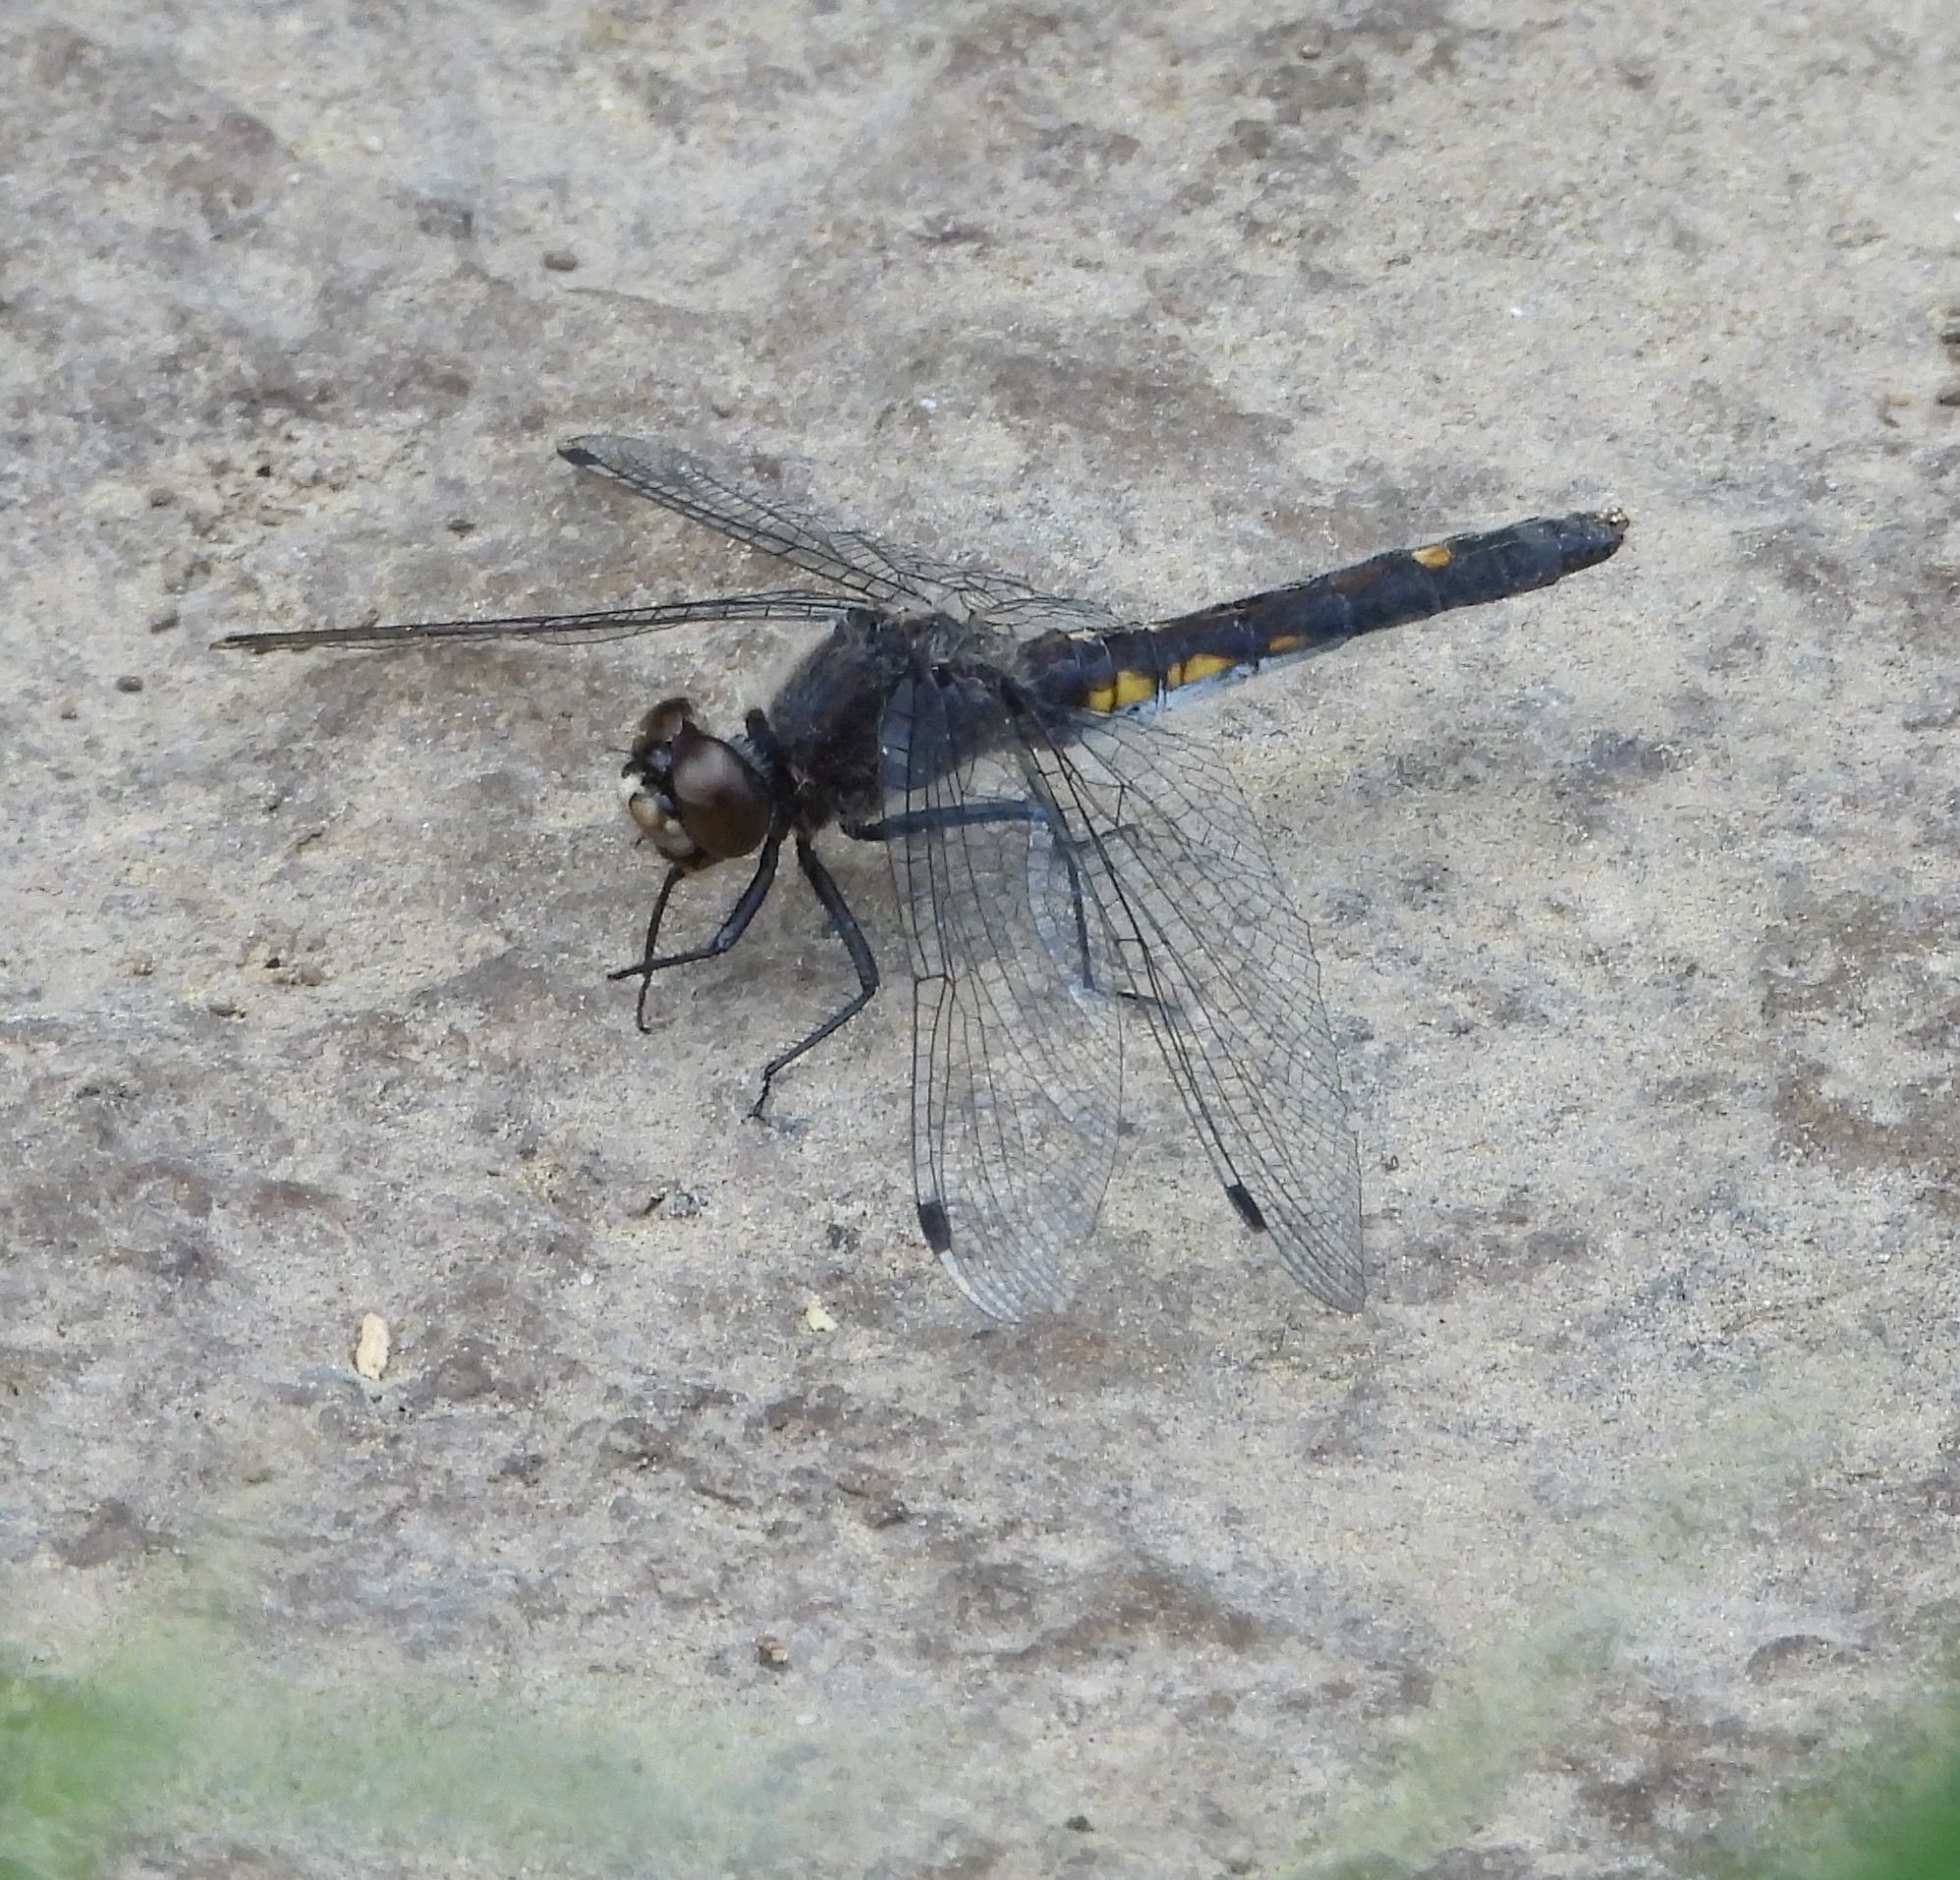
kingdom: Animalia
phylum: Arthropoda
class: Insecta
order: Odonata
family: Libellulidae
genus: Leucorrhinia
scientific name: Leucorrhinia intacta
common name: Dot-tailed whiteface
